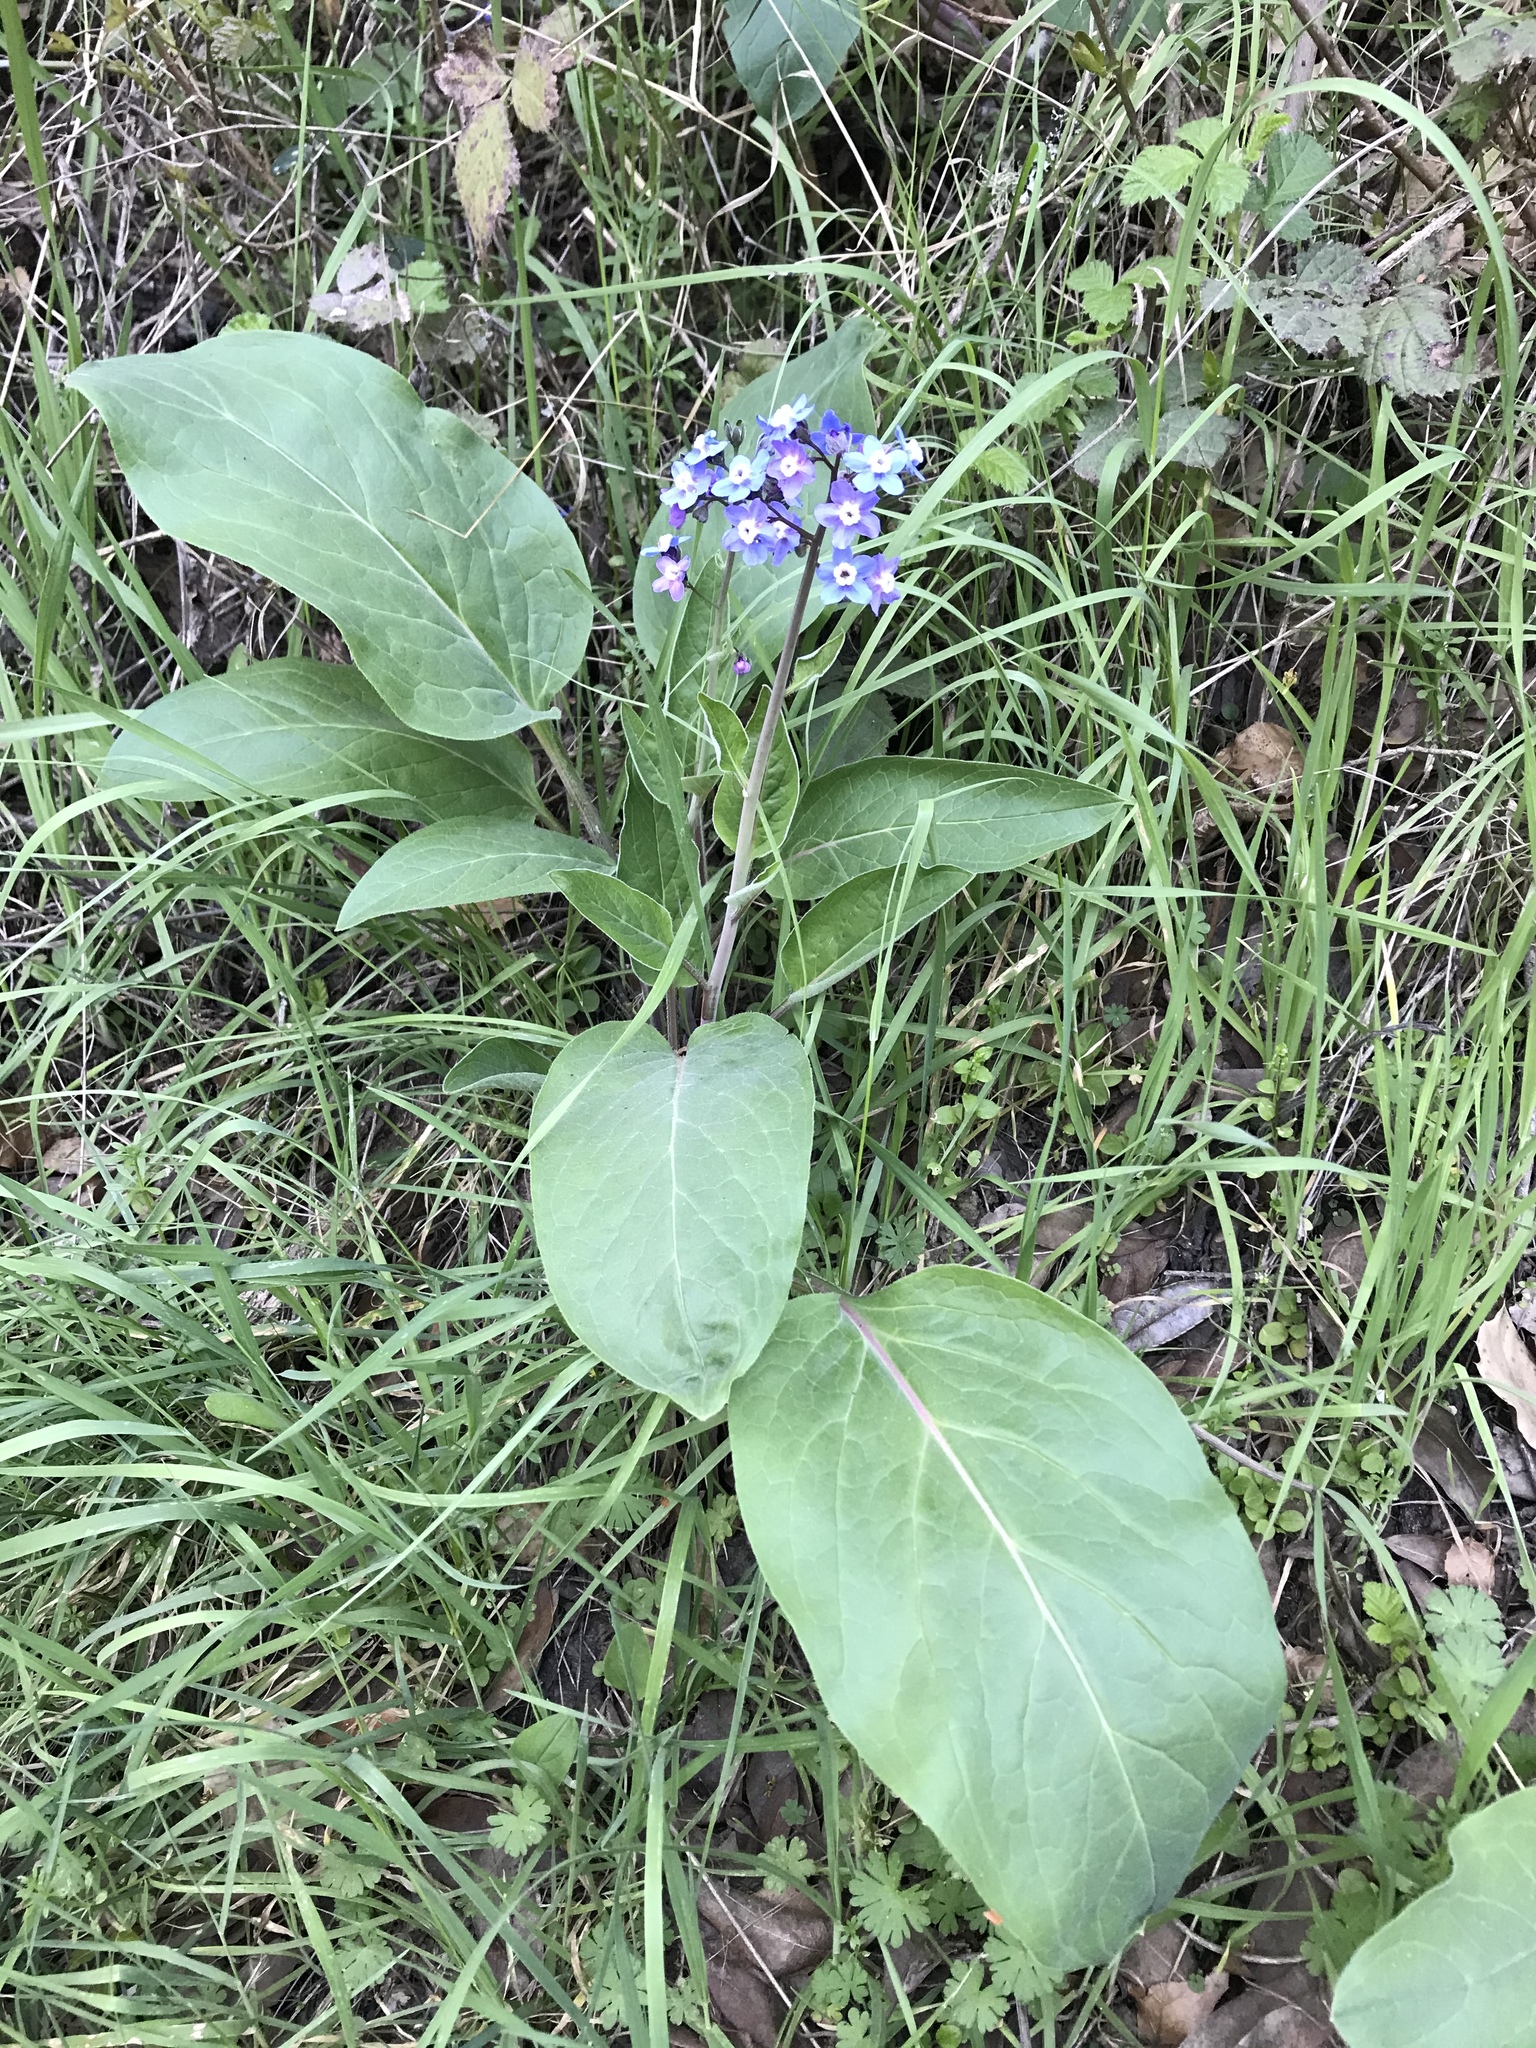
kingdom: Plantae
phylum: Tracheophyta
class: Magnoliopsida
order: Boraginales
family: Boraginaceae
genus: Adelinia
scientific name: Adelinia grande
